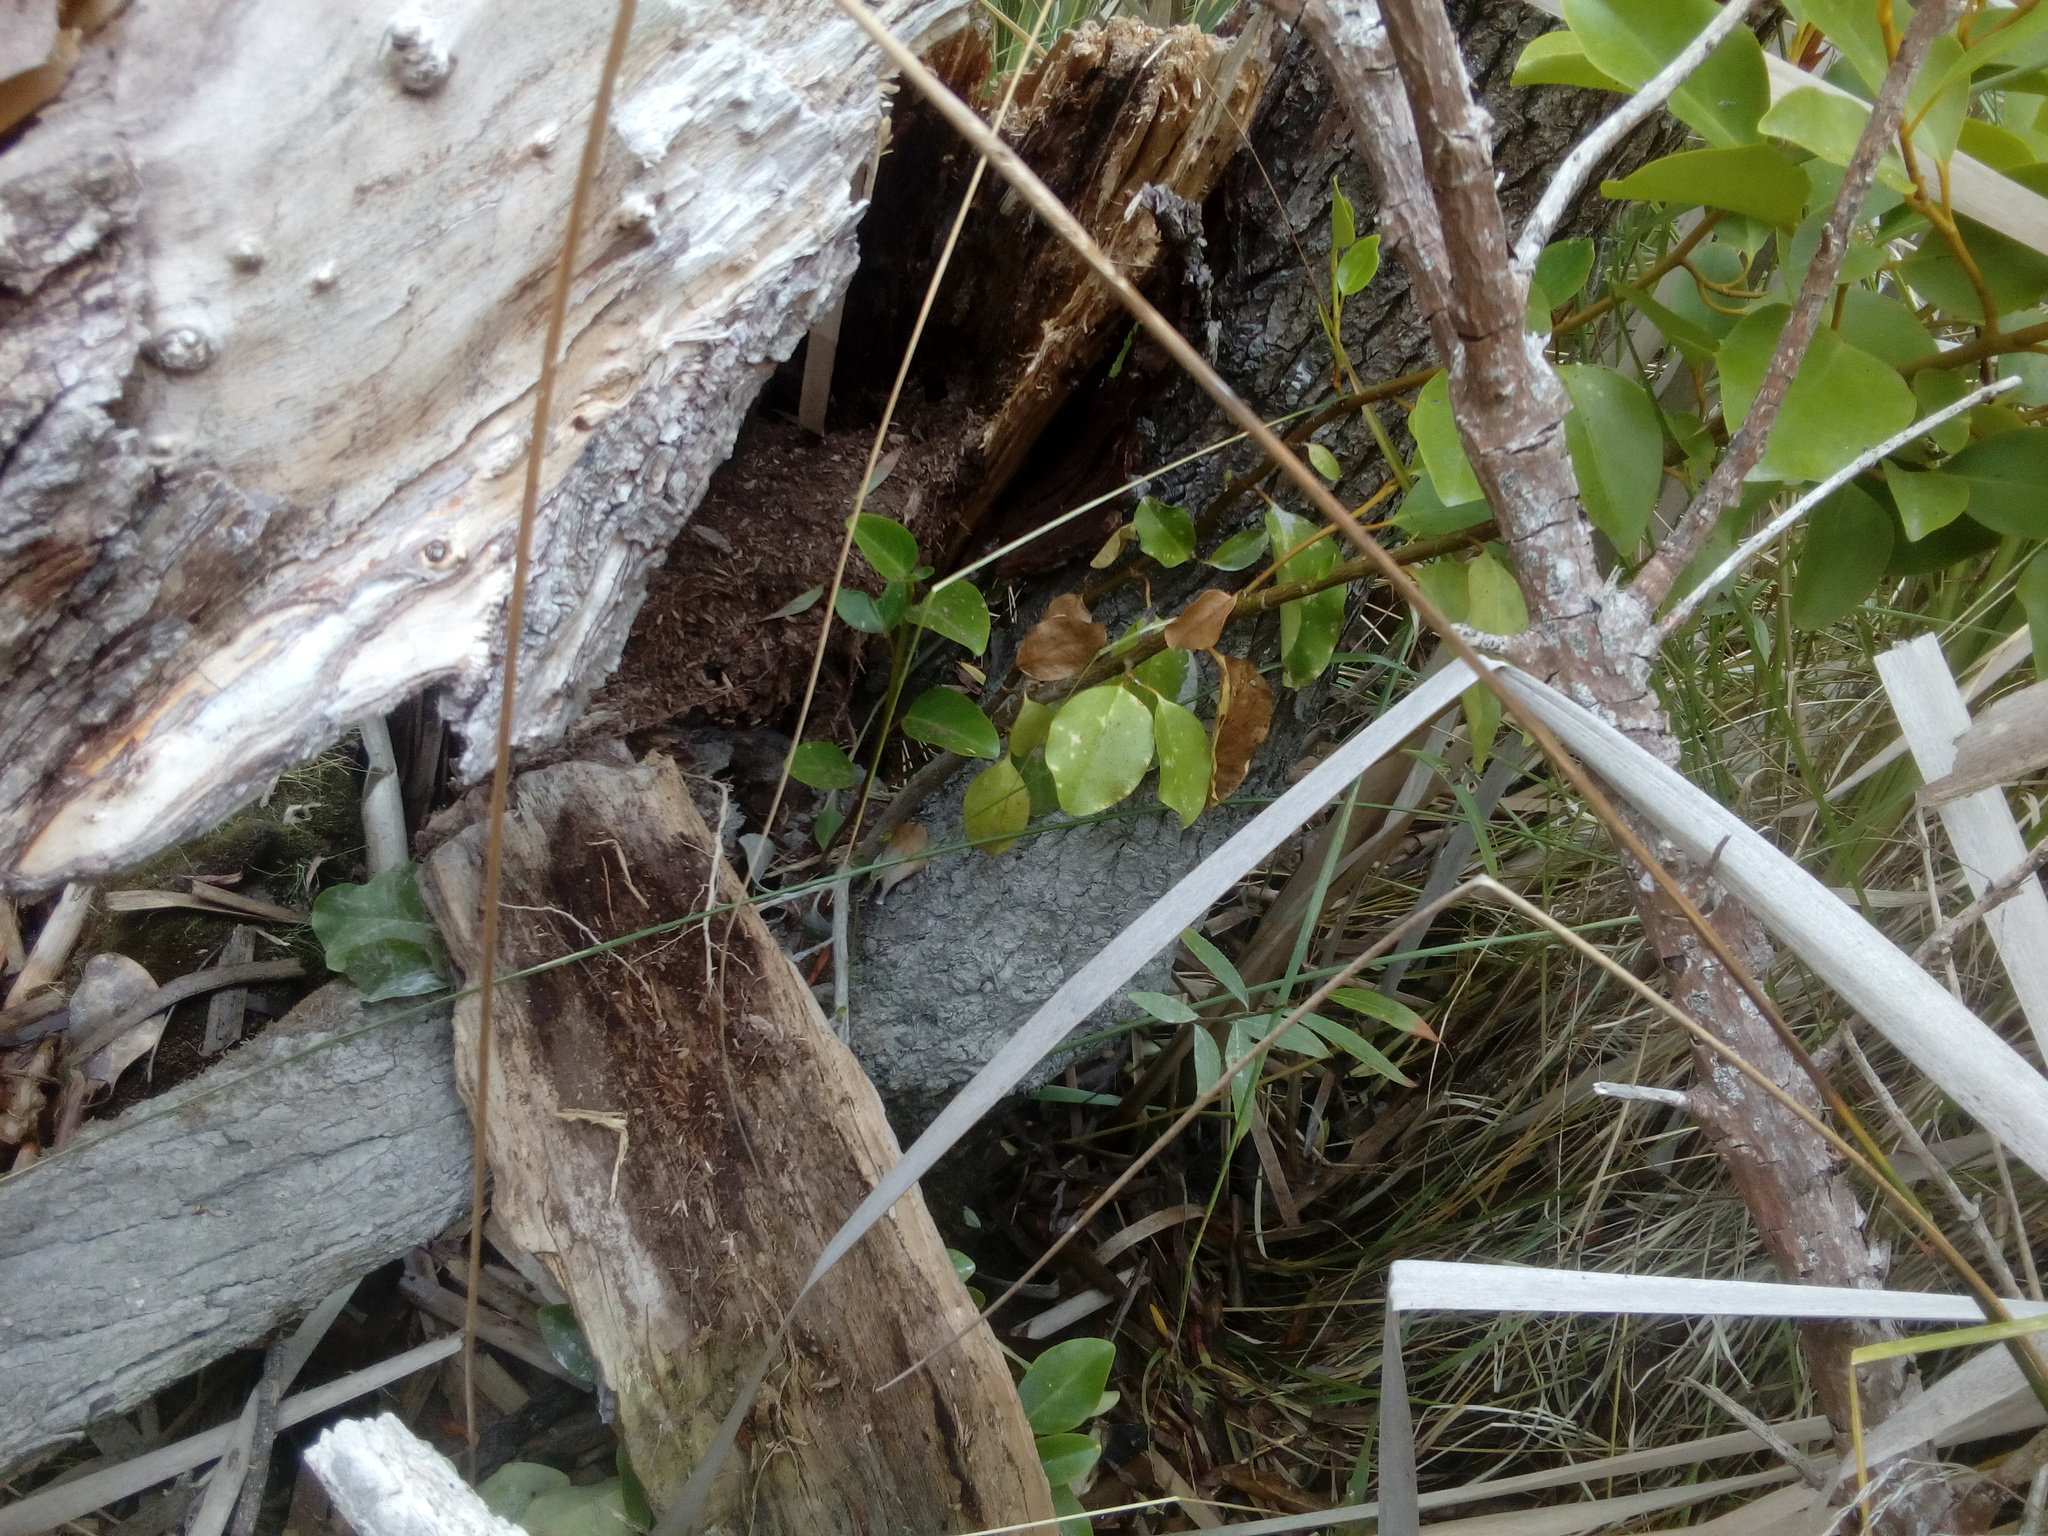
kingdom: Plantae
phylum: Tracheophyta
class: Magnoliopsida
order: Apiales
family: Griseliniaceae
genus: Griselinia
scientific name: Griselinia littoralis
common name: New zealand broadleaf
